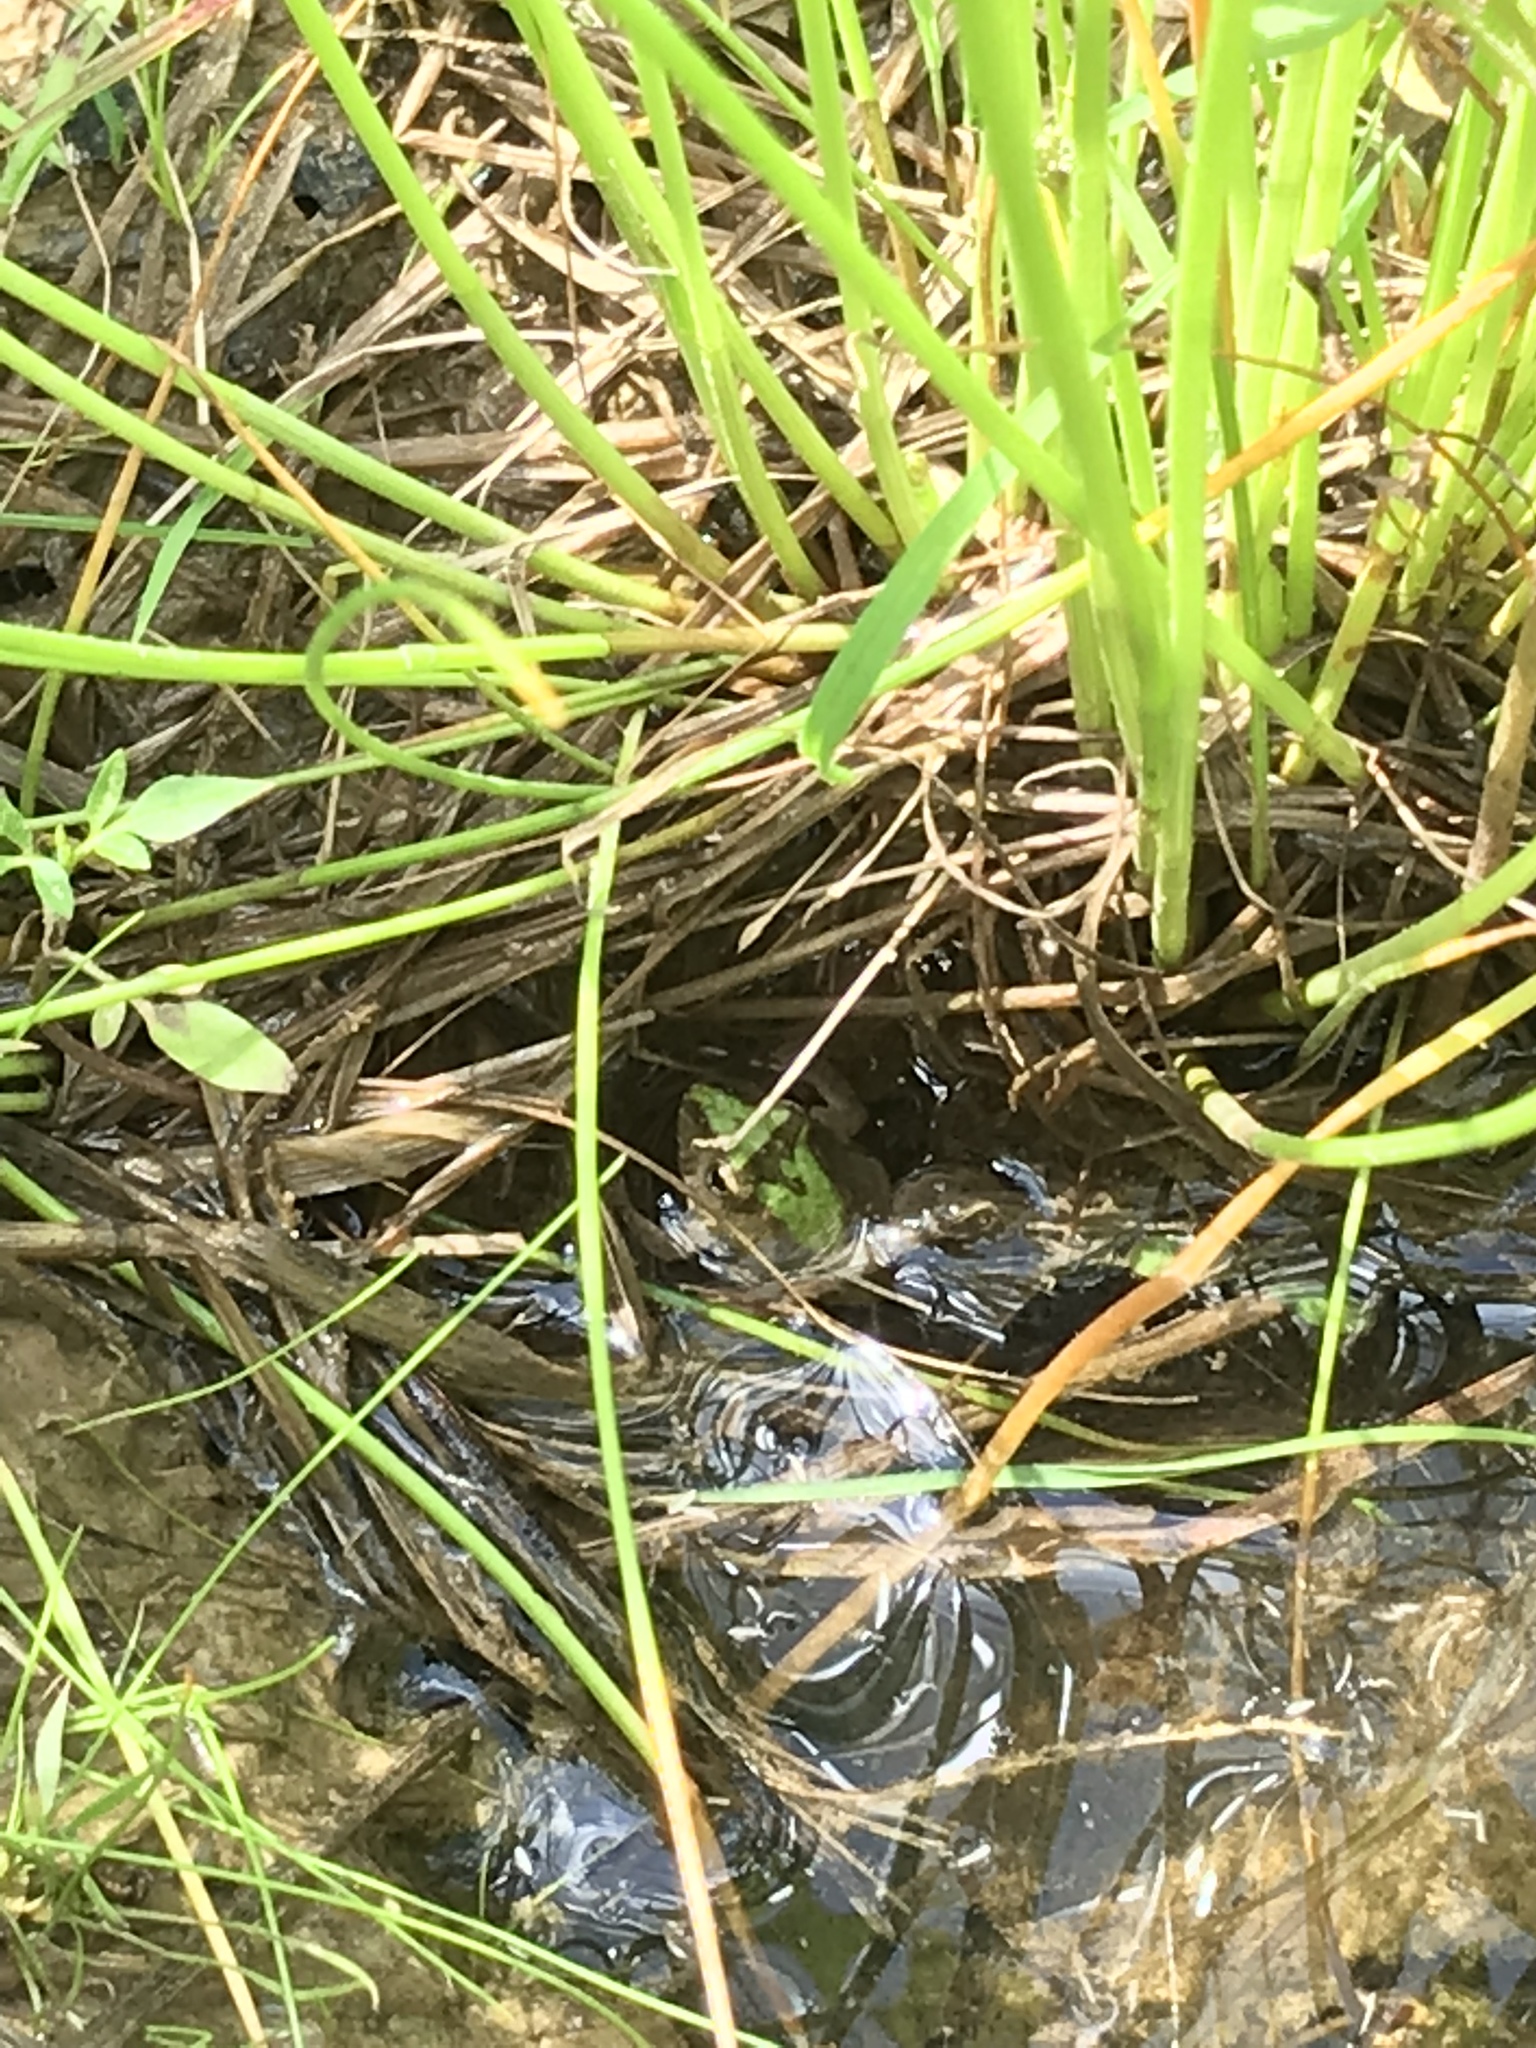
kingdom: Animalia
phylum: Chordata
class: Amphibia
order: Anura
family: Hylidae
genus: Acris
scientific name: Acris blanchardi
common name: Blanchard's cricket frog
